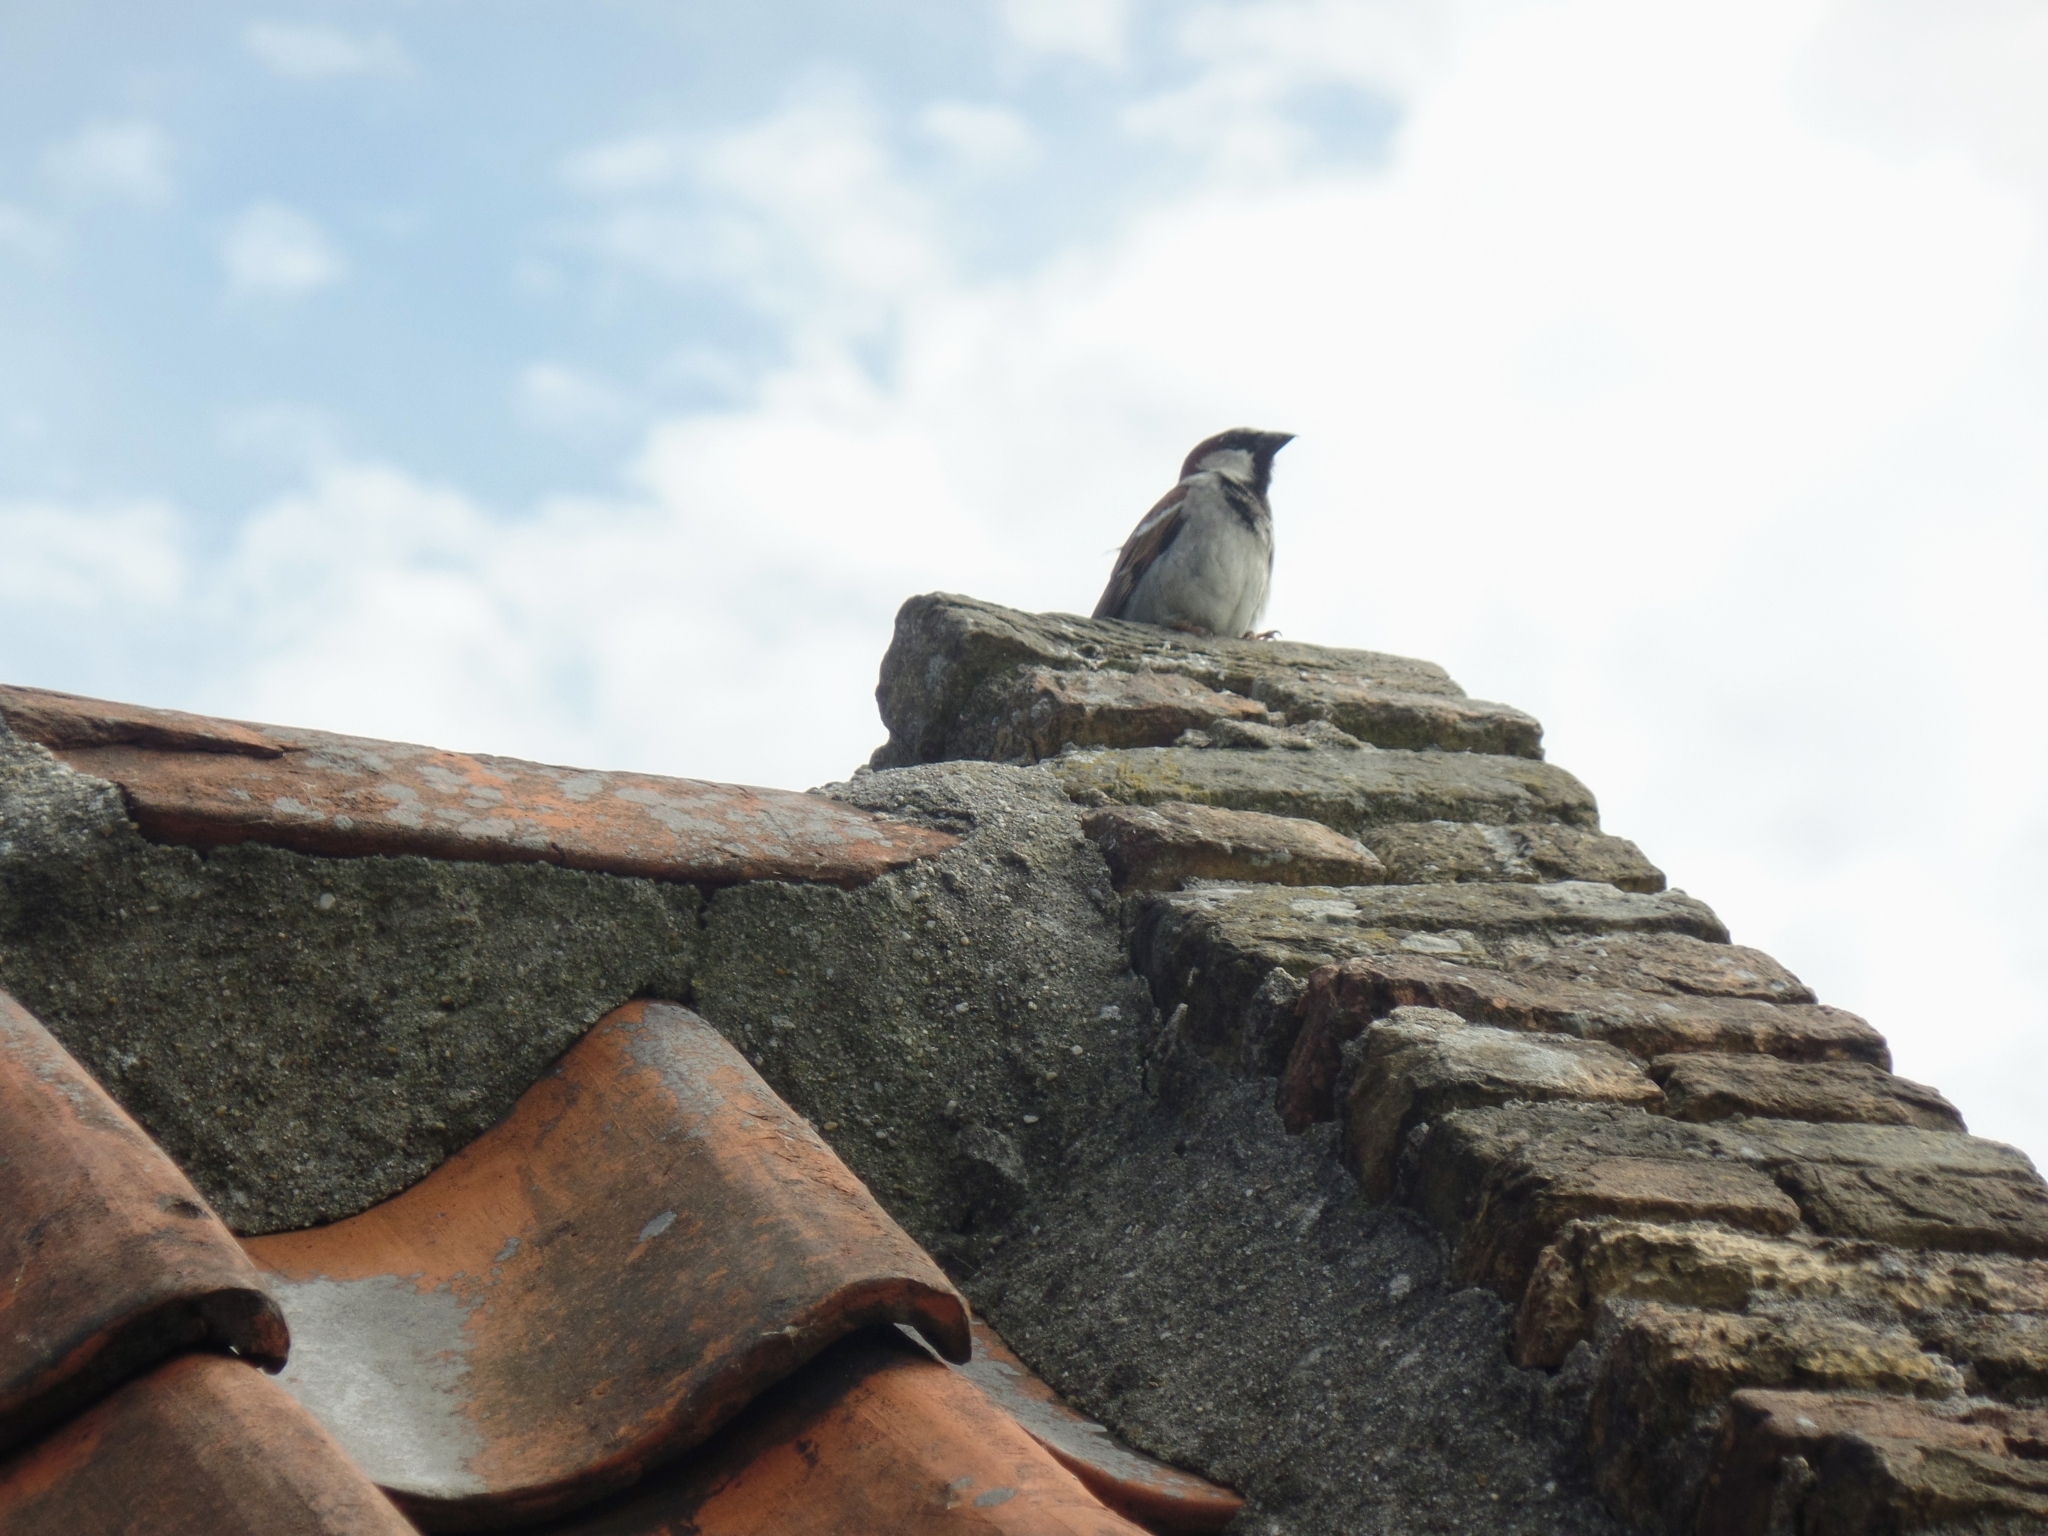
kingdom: Animalia
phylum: Chordata
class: Aves
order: Passeriformes
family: Passeridae
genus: Passer
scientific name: Passer domesticus
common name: House sparrow
